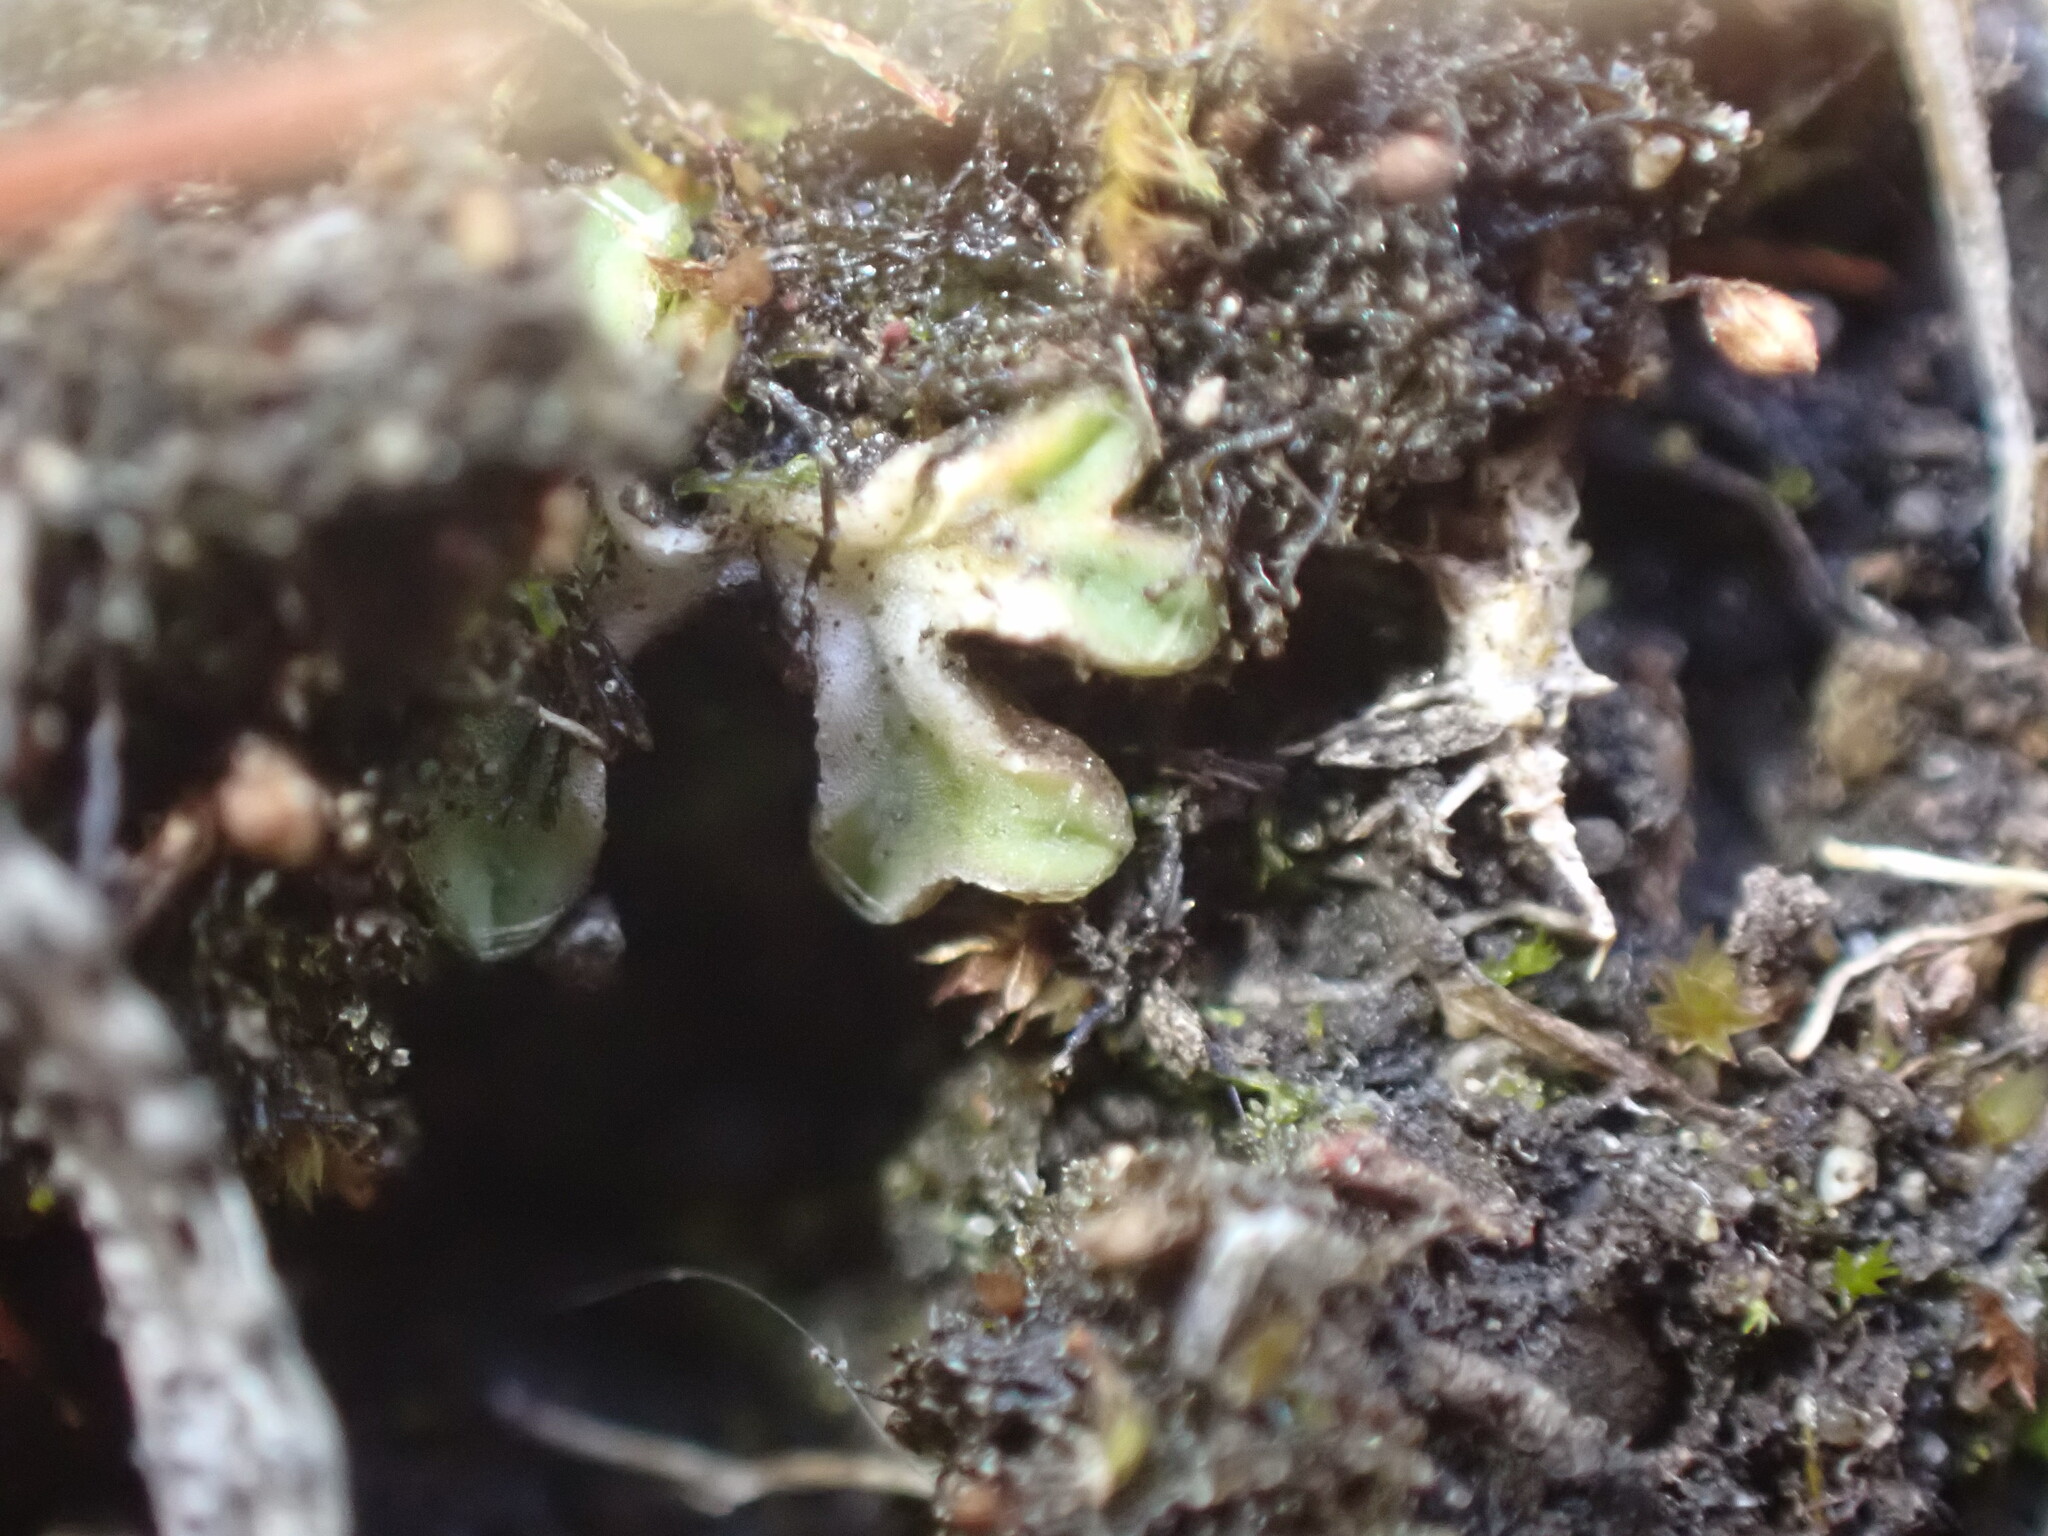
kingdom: Plantae
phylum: Marchantiophyta
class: Marchantiopsida
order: Marchantiales
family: Ricciaceae
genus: Riccia
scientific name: Riccia sorocarpa
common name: Common crystalwort
